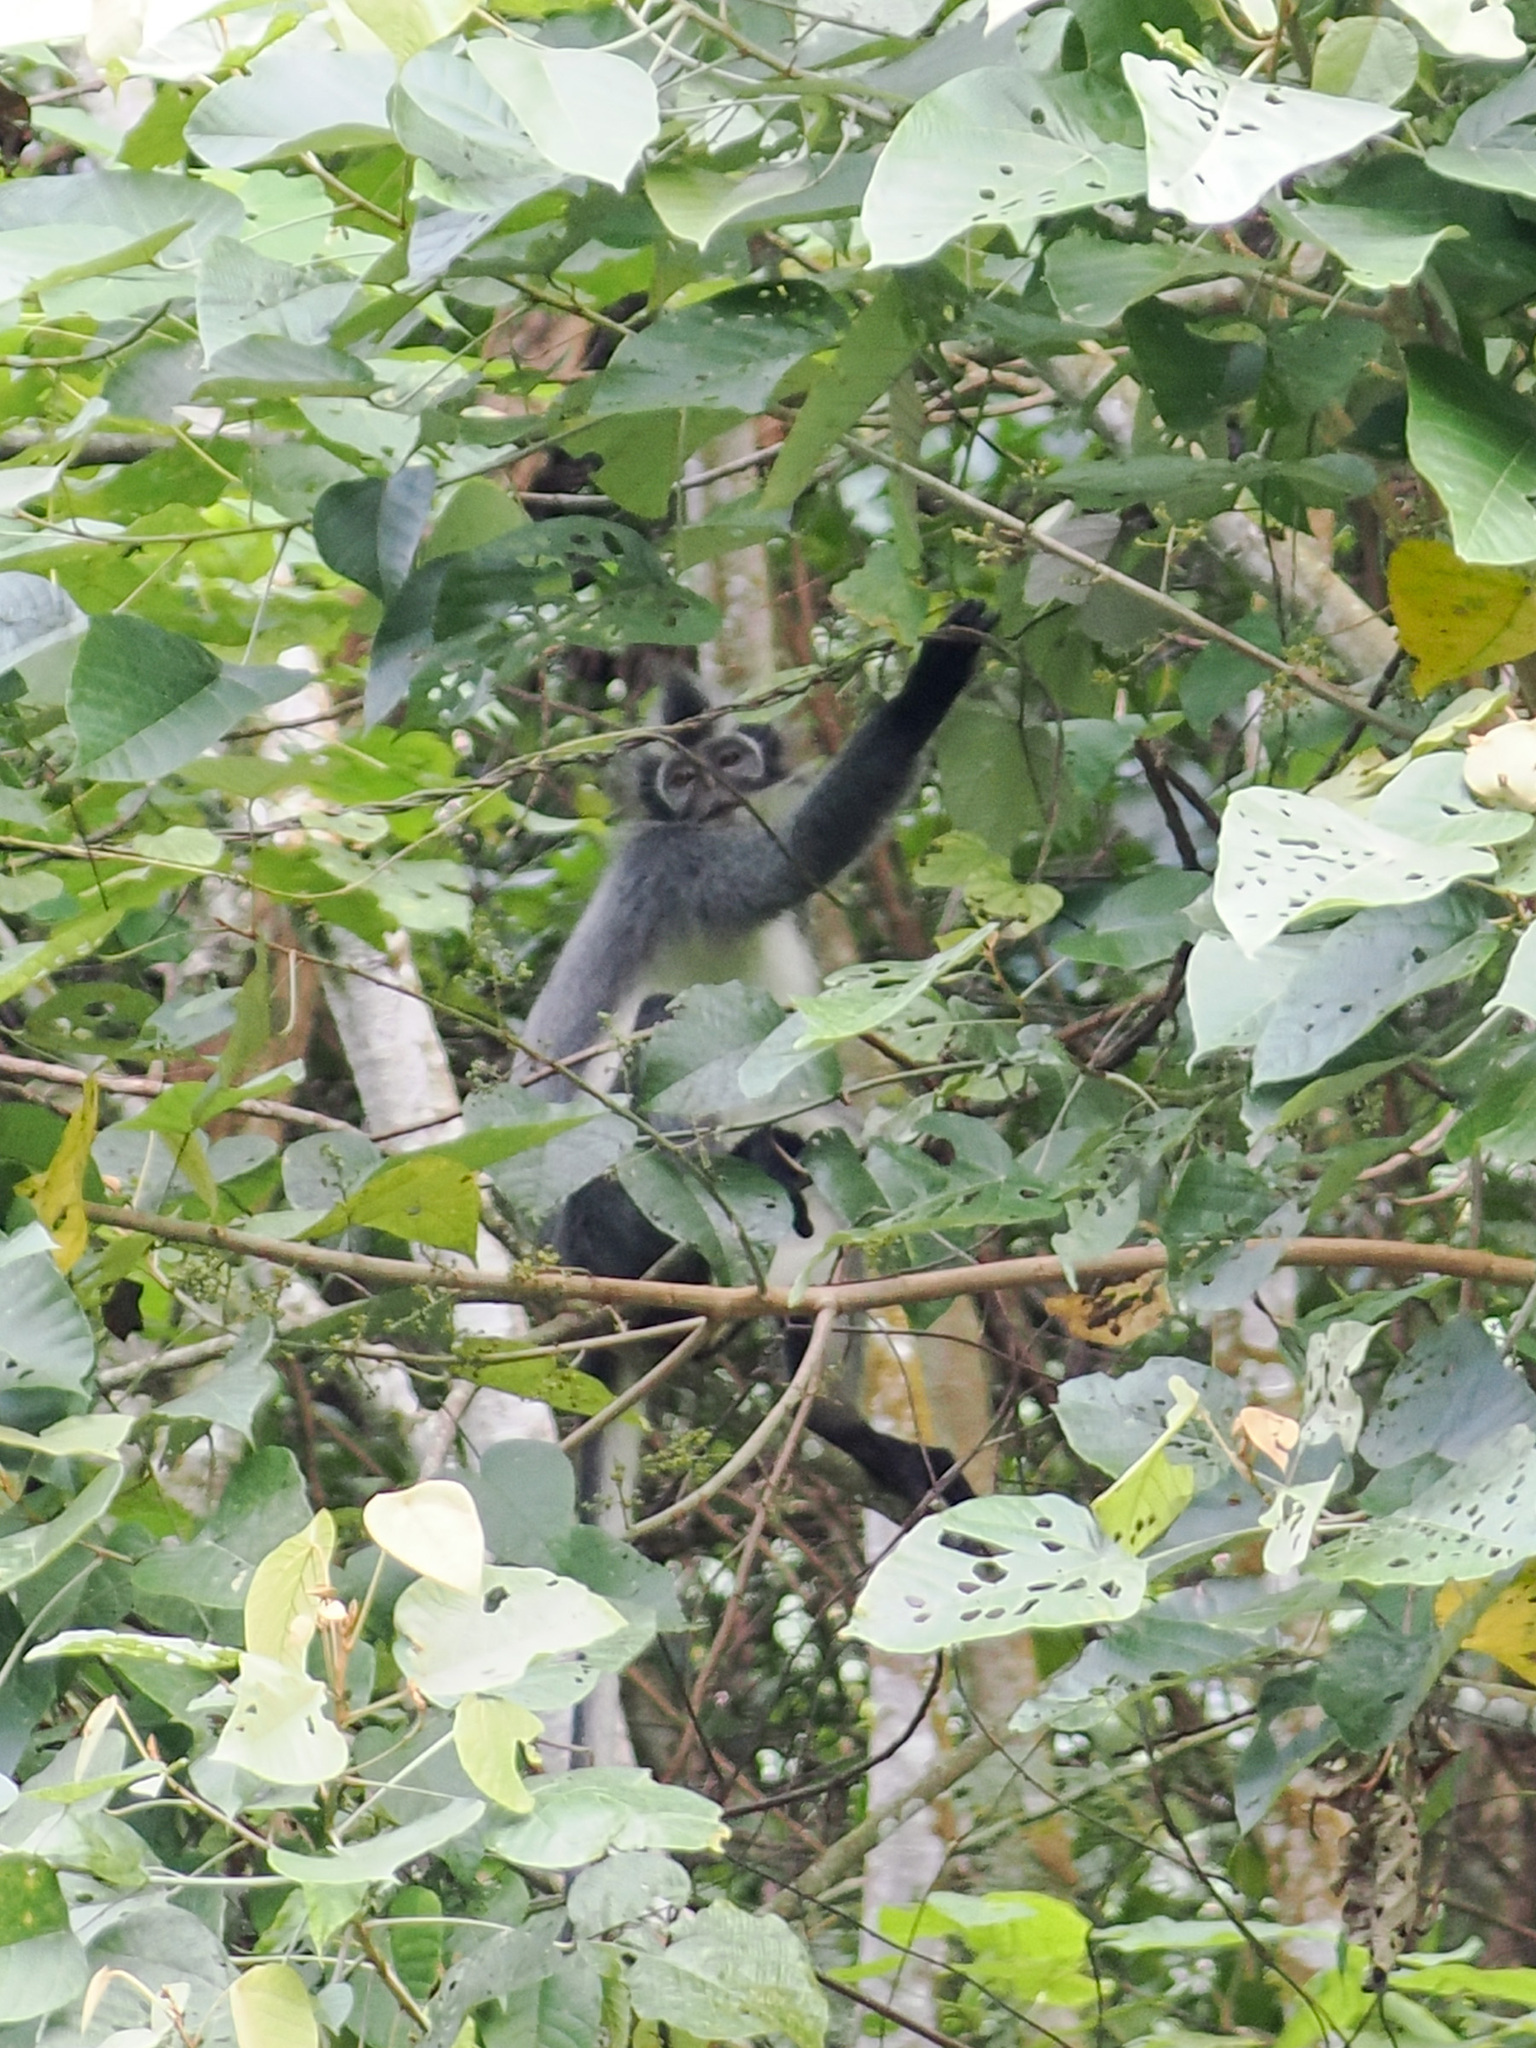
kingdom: Animalia
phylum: Chordata
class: Mammalia
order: Primates
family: Cercopithecidae
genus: Presbytis
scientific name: Presbytis thomasi
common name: Thomas's langur
